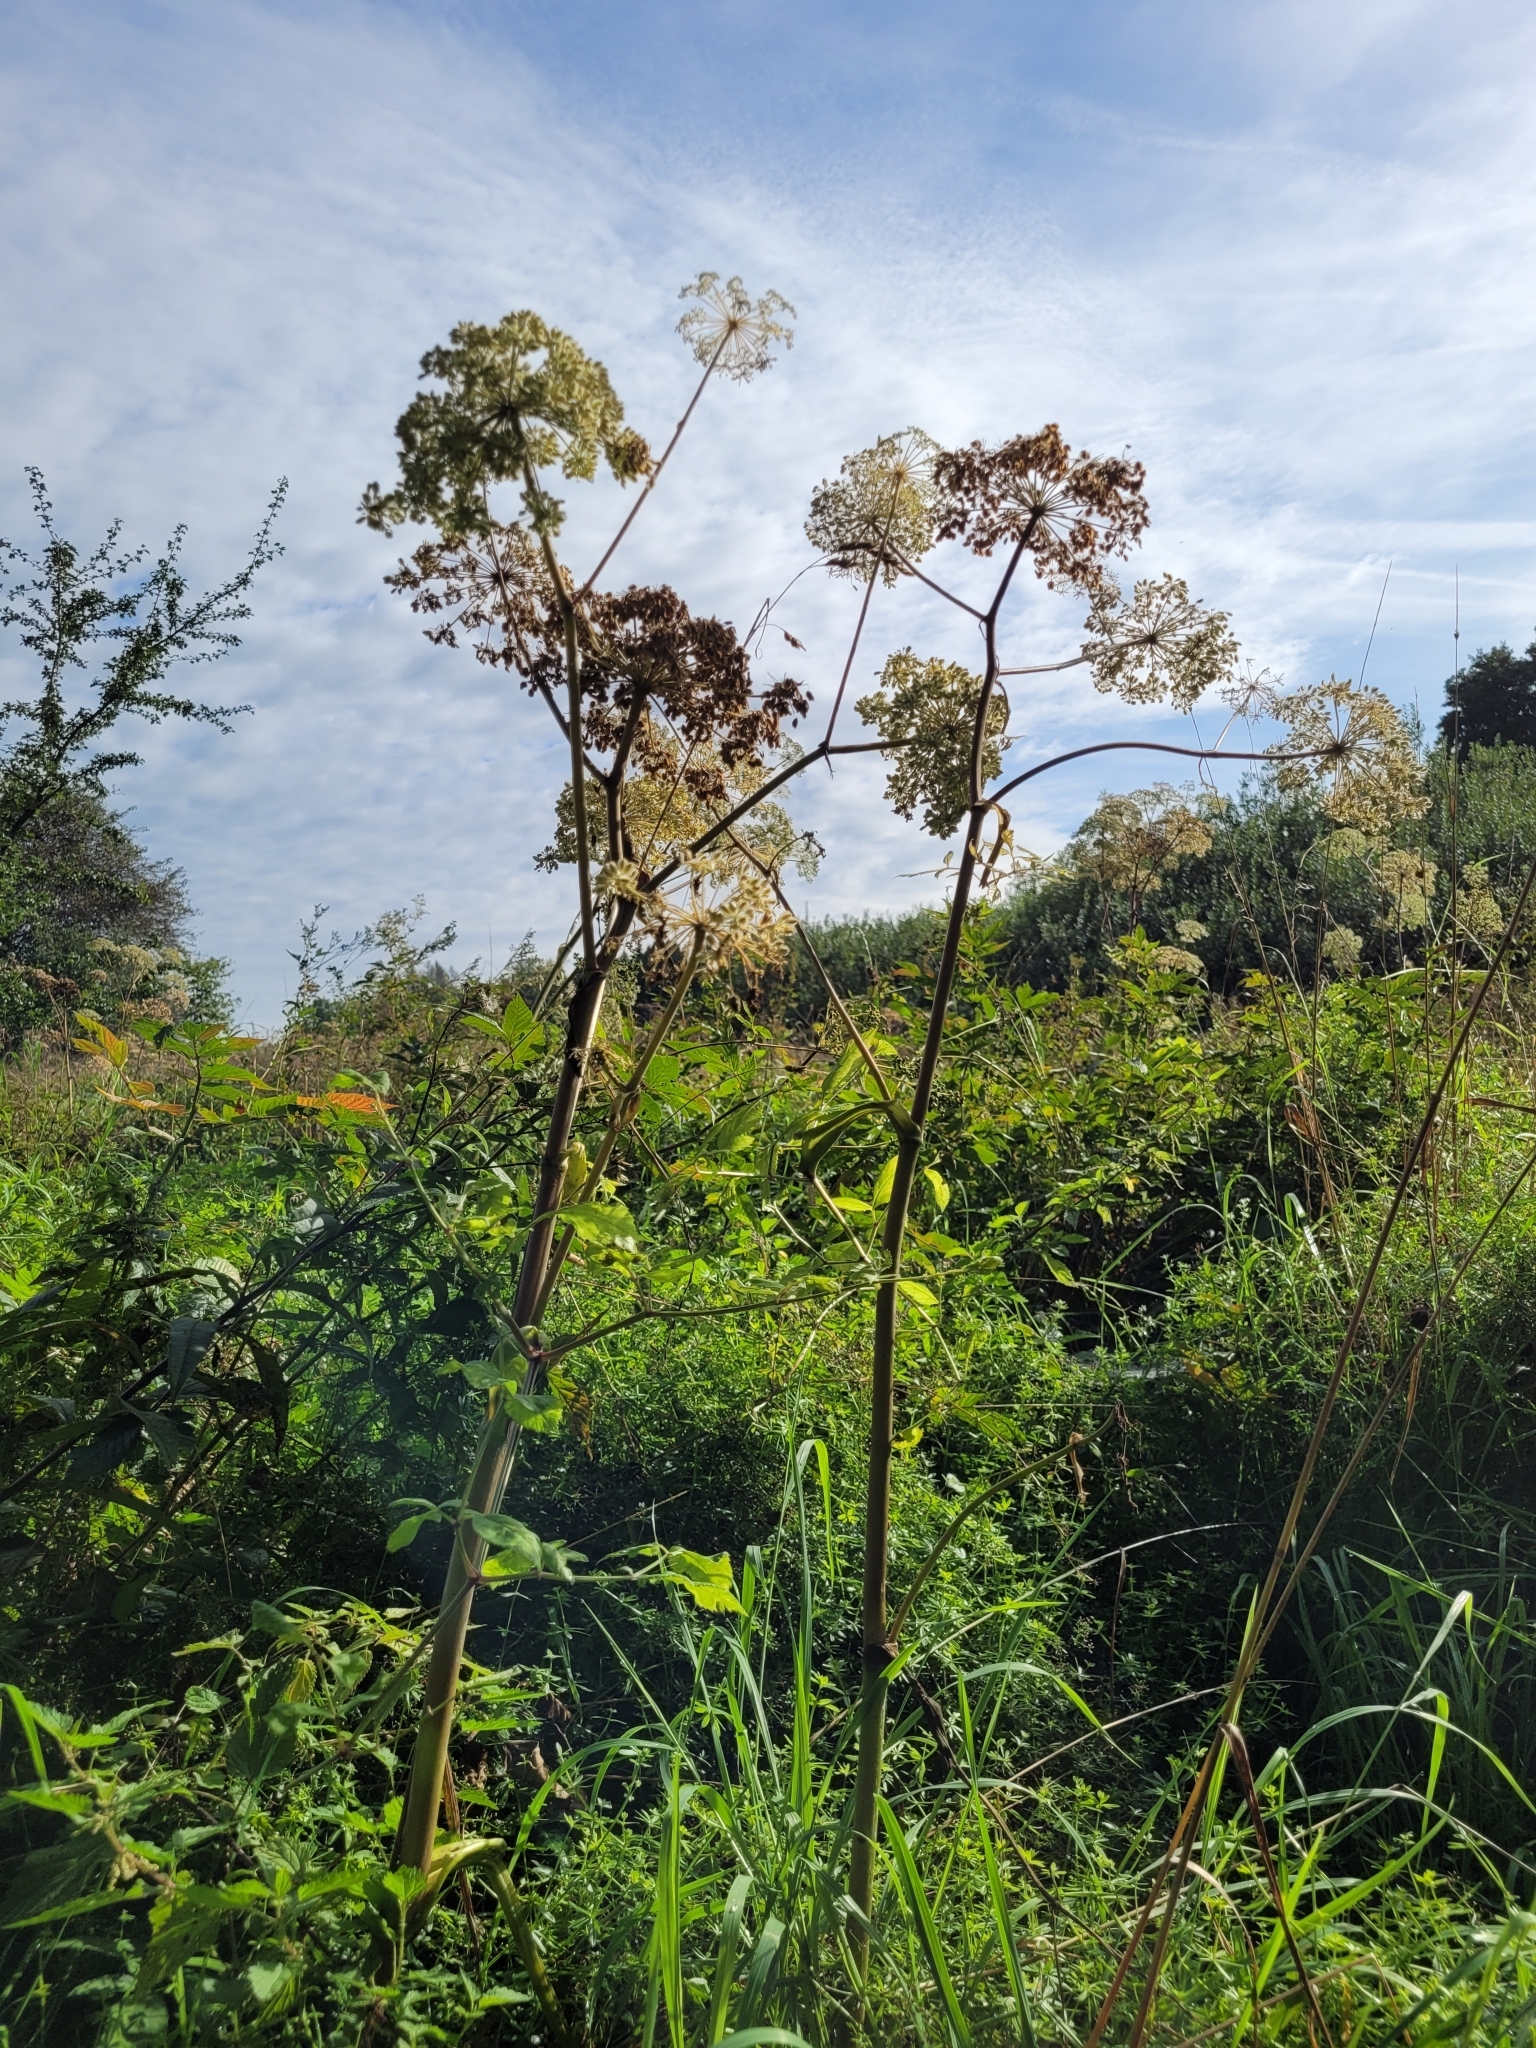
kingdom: Plantae
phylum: Tracheophyta
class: Magnoliopsida
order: Apiales
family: Apiaceae
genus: Angelica
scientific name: Angelica sylvestris
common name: Wild angelica
